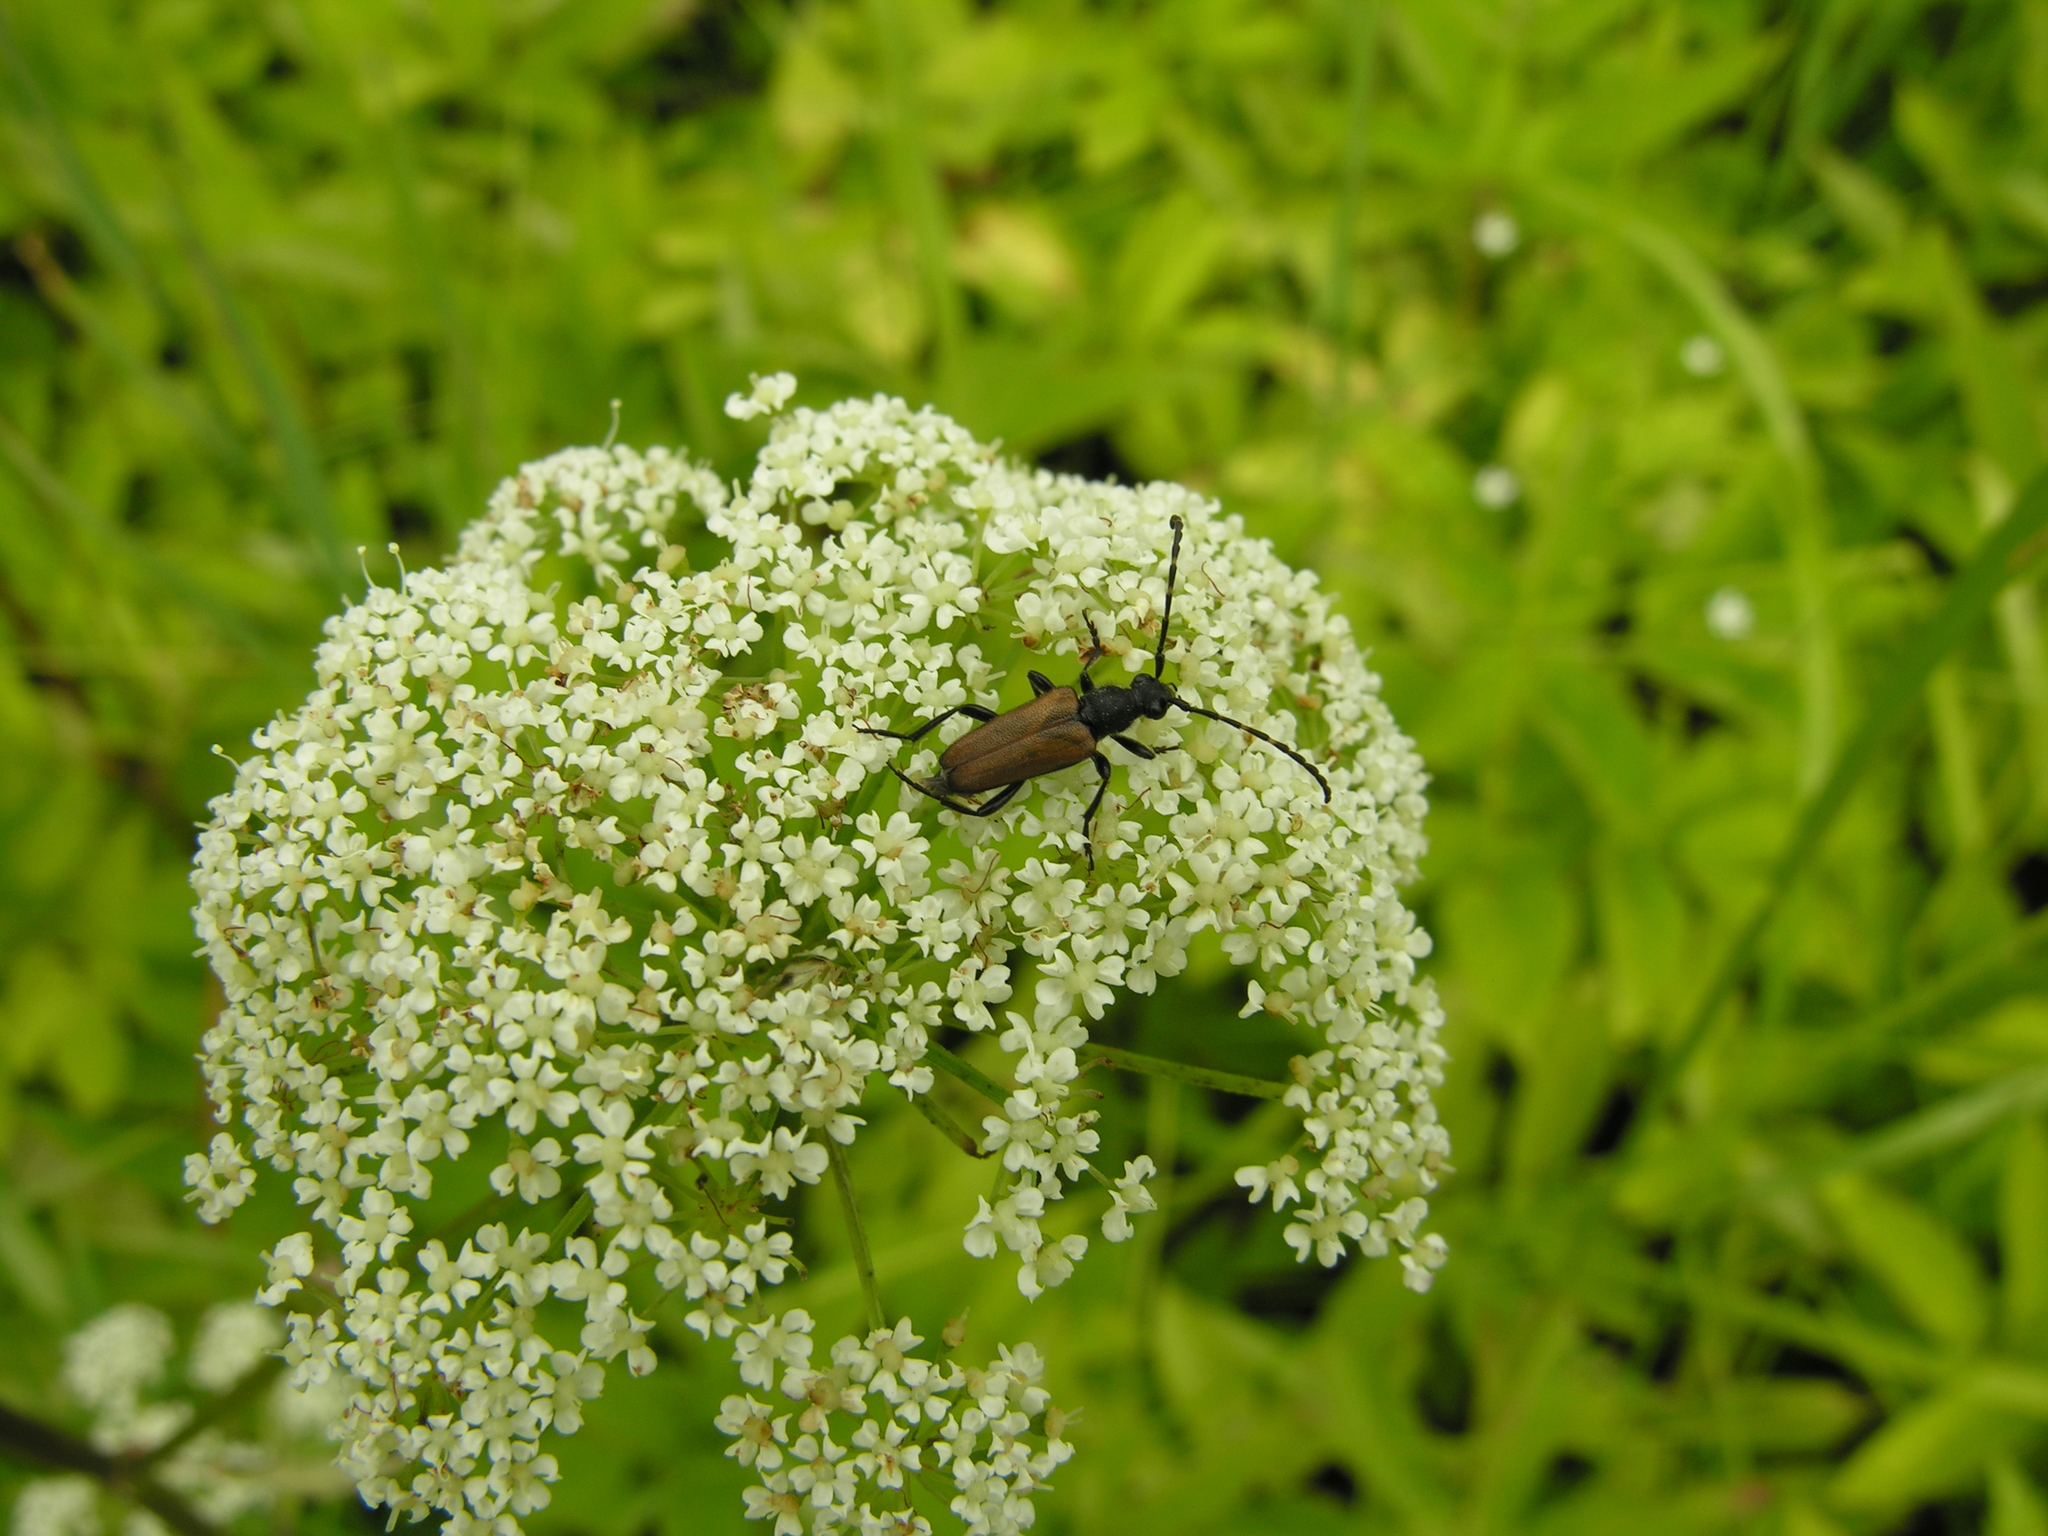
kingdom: Animalia
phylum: Arthropoda
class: Insecta
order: Coleoptera
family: Cerambycidae
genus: Paracorymbia
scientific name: Paracorymbia maculicornis
